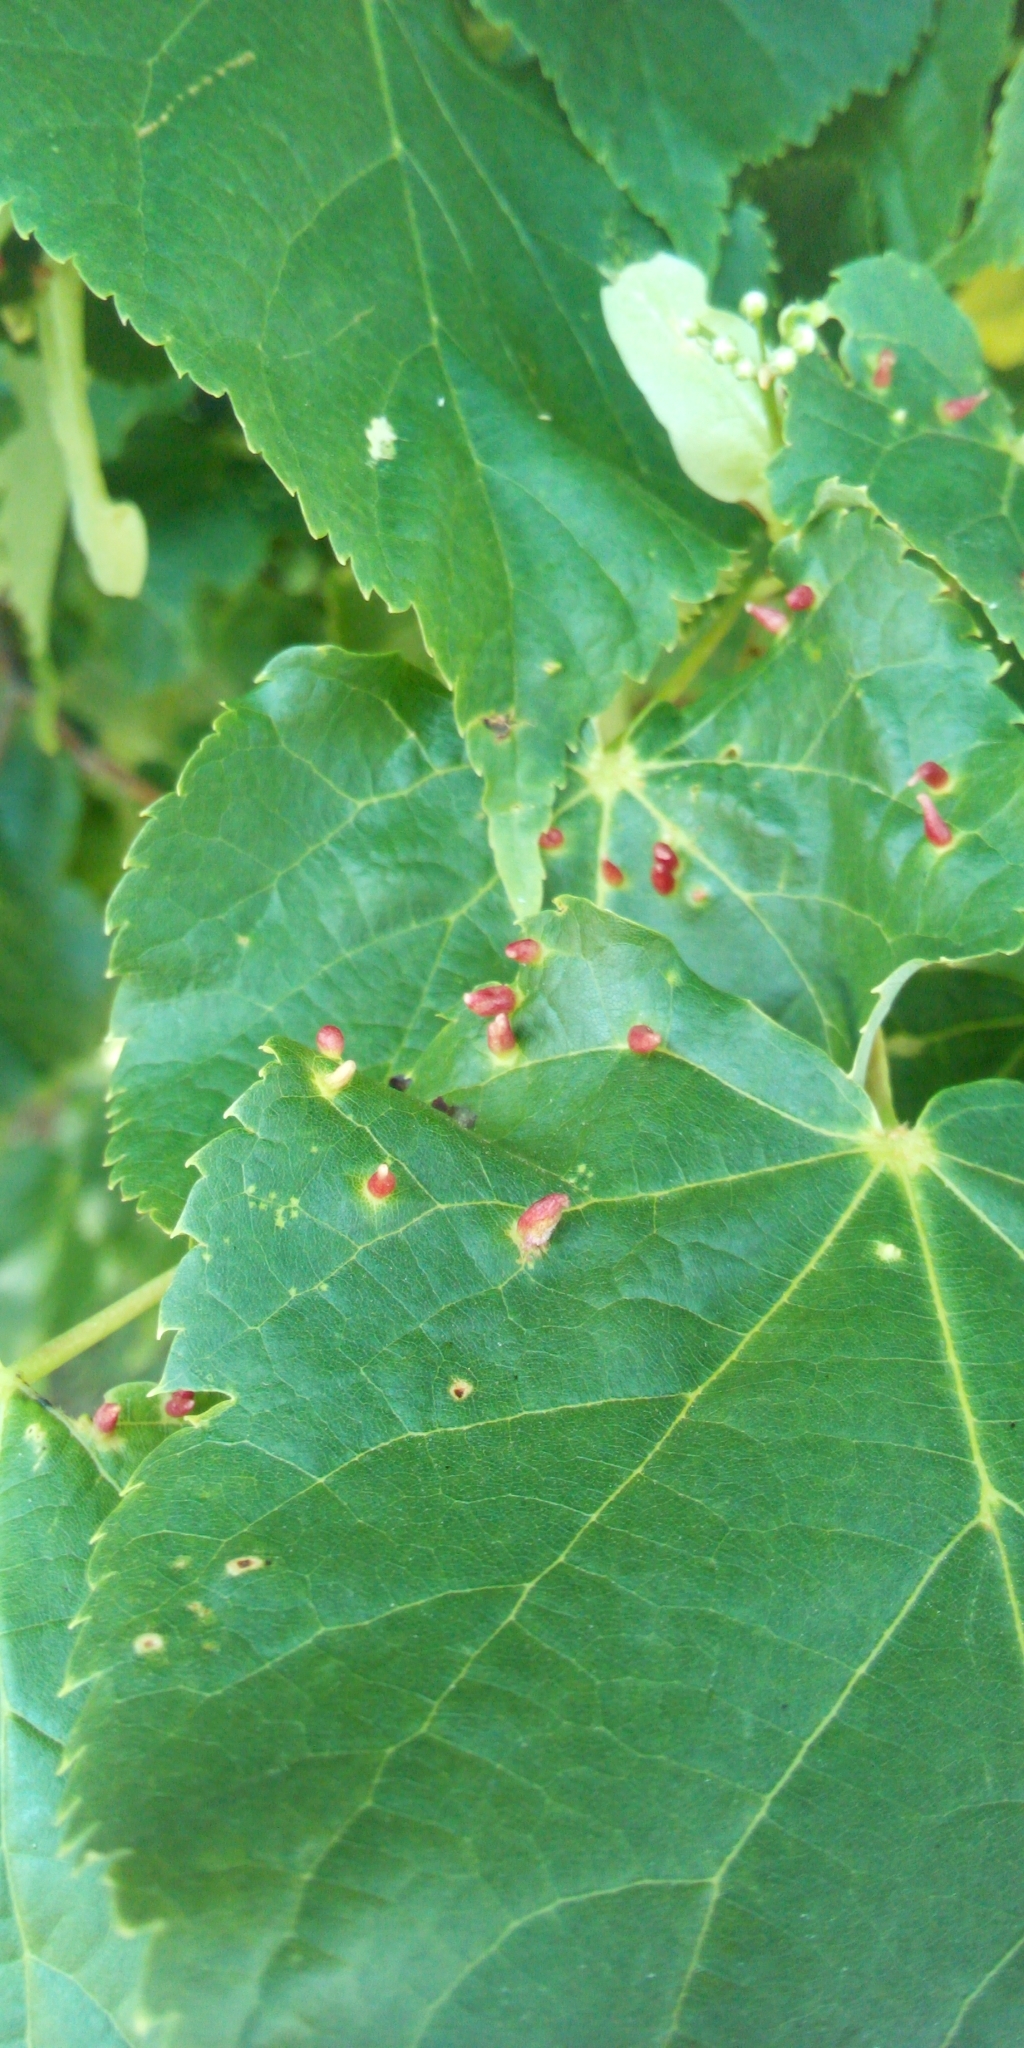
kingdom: Animalia
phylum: Arthropoda
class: Arachnida
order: Trombidiformes
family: Eriophyidae
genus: Eriophyes
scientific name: Eriophyes tiliae
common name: Red nail gall mite
